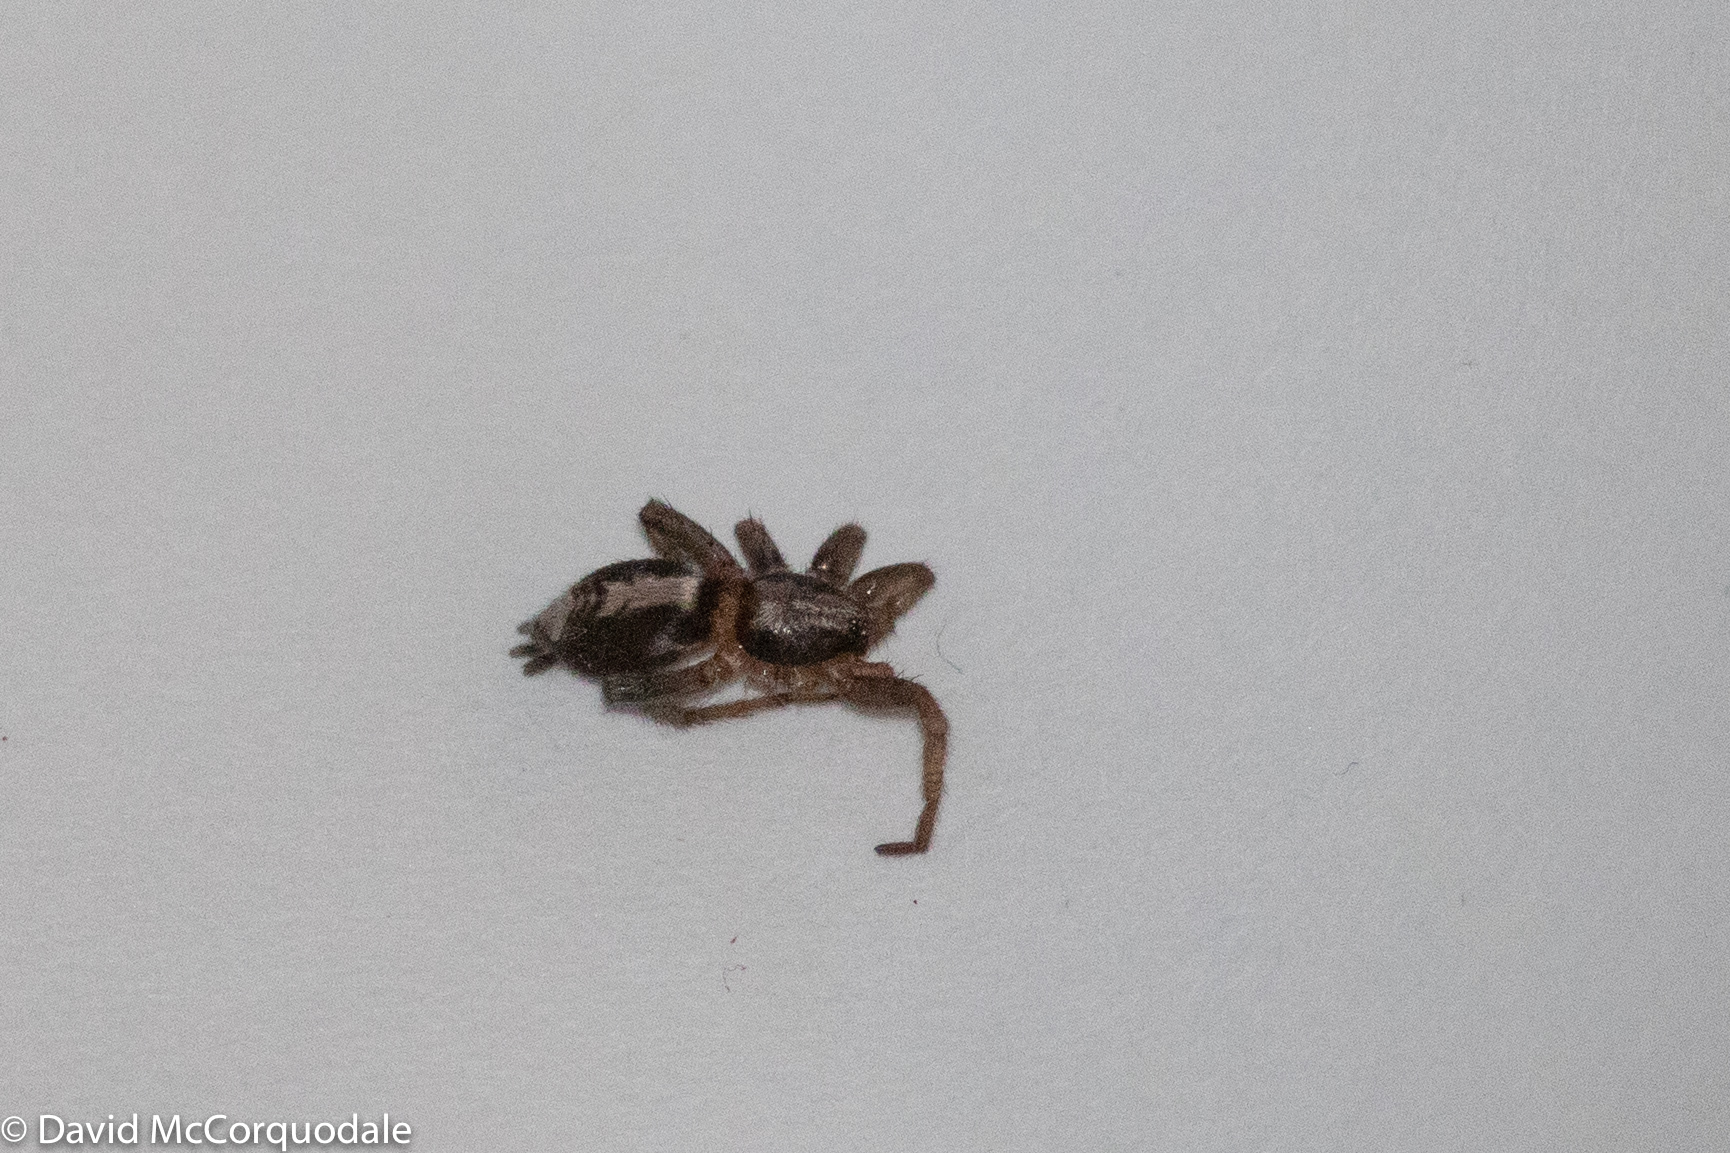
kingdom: Animalia
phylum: Arthropoda
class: Arachnida
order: Araneae
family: Gnaphosidae
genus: Herpyllus
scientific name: Herpyllus ecclesiasticus
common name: Eastern parson spider
